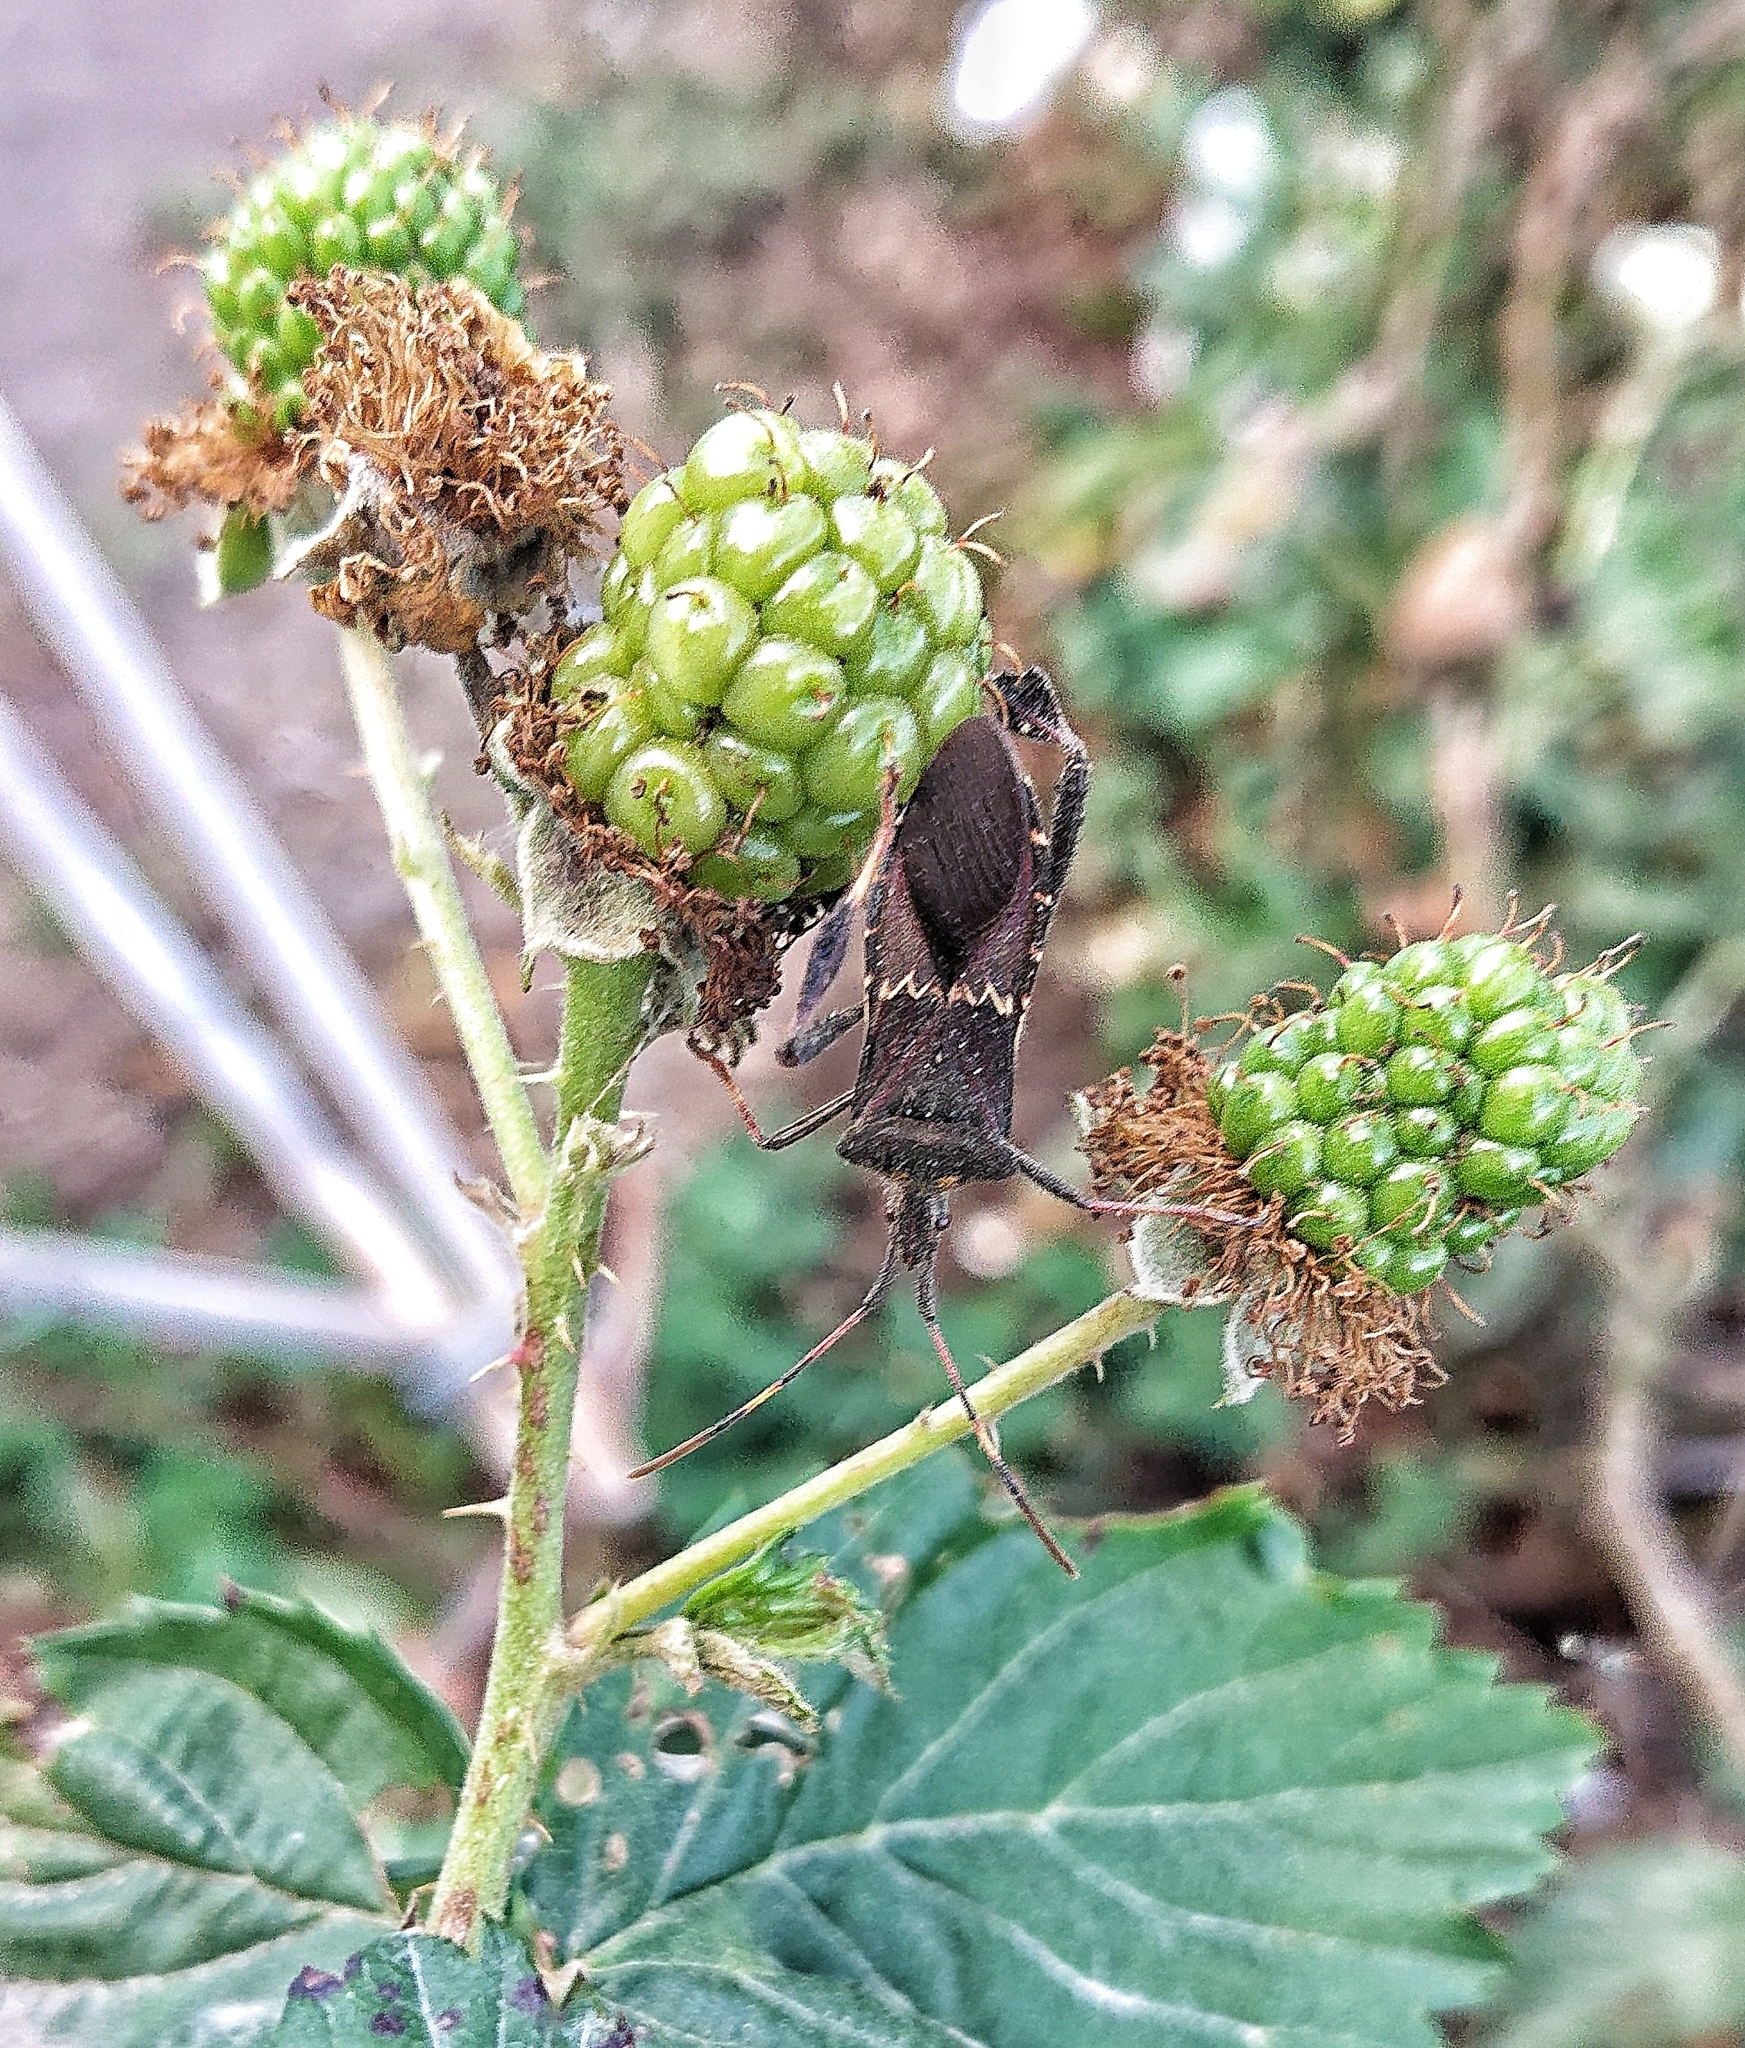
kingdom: Animalia
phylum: Arthropoda
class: Insecta
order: Hemiptera
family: Coreidae
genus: Leptoglossus
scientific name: Leptoglossus zonatus
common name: Large-legged bug
